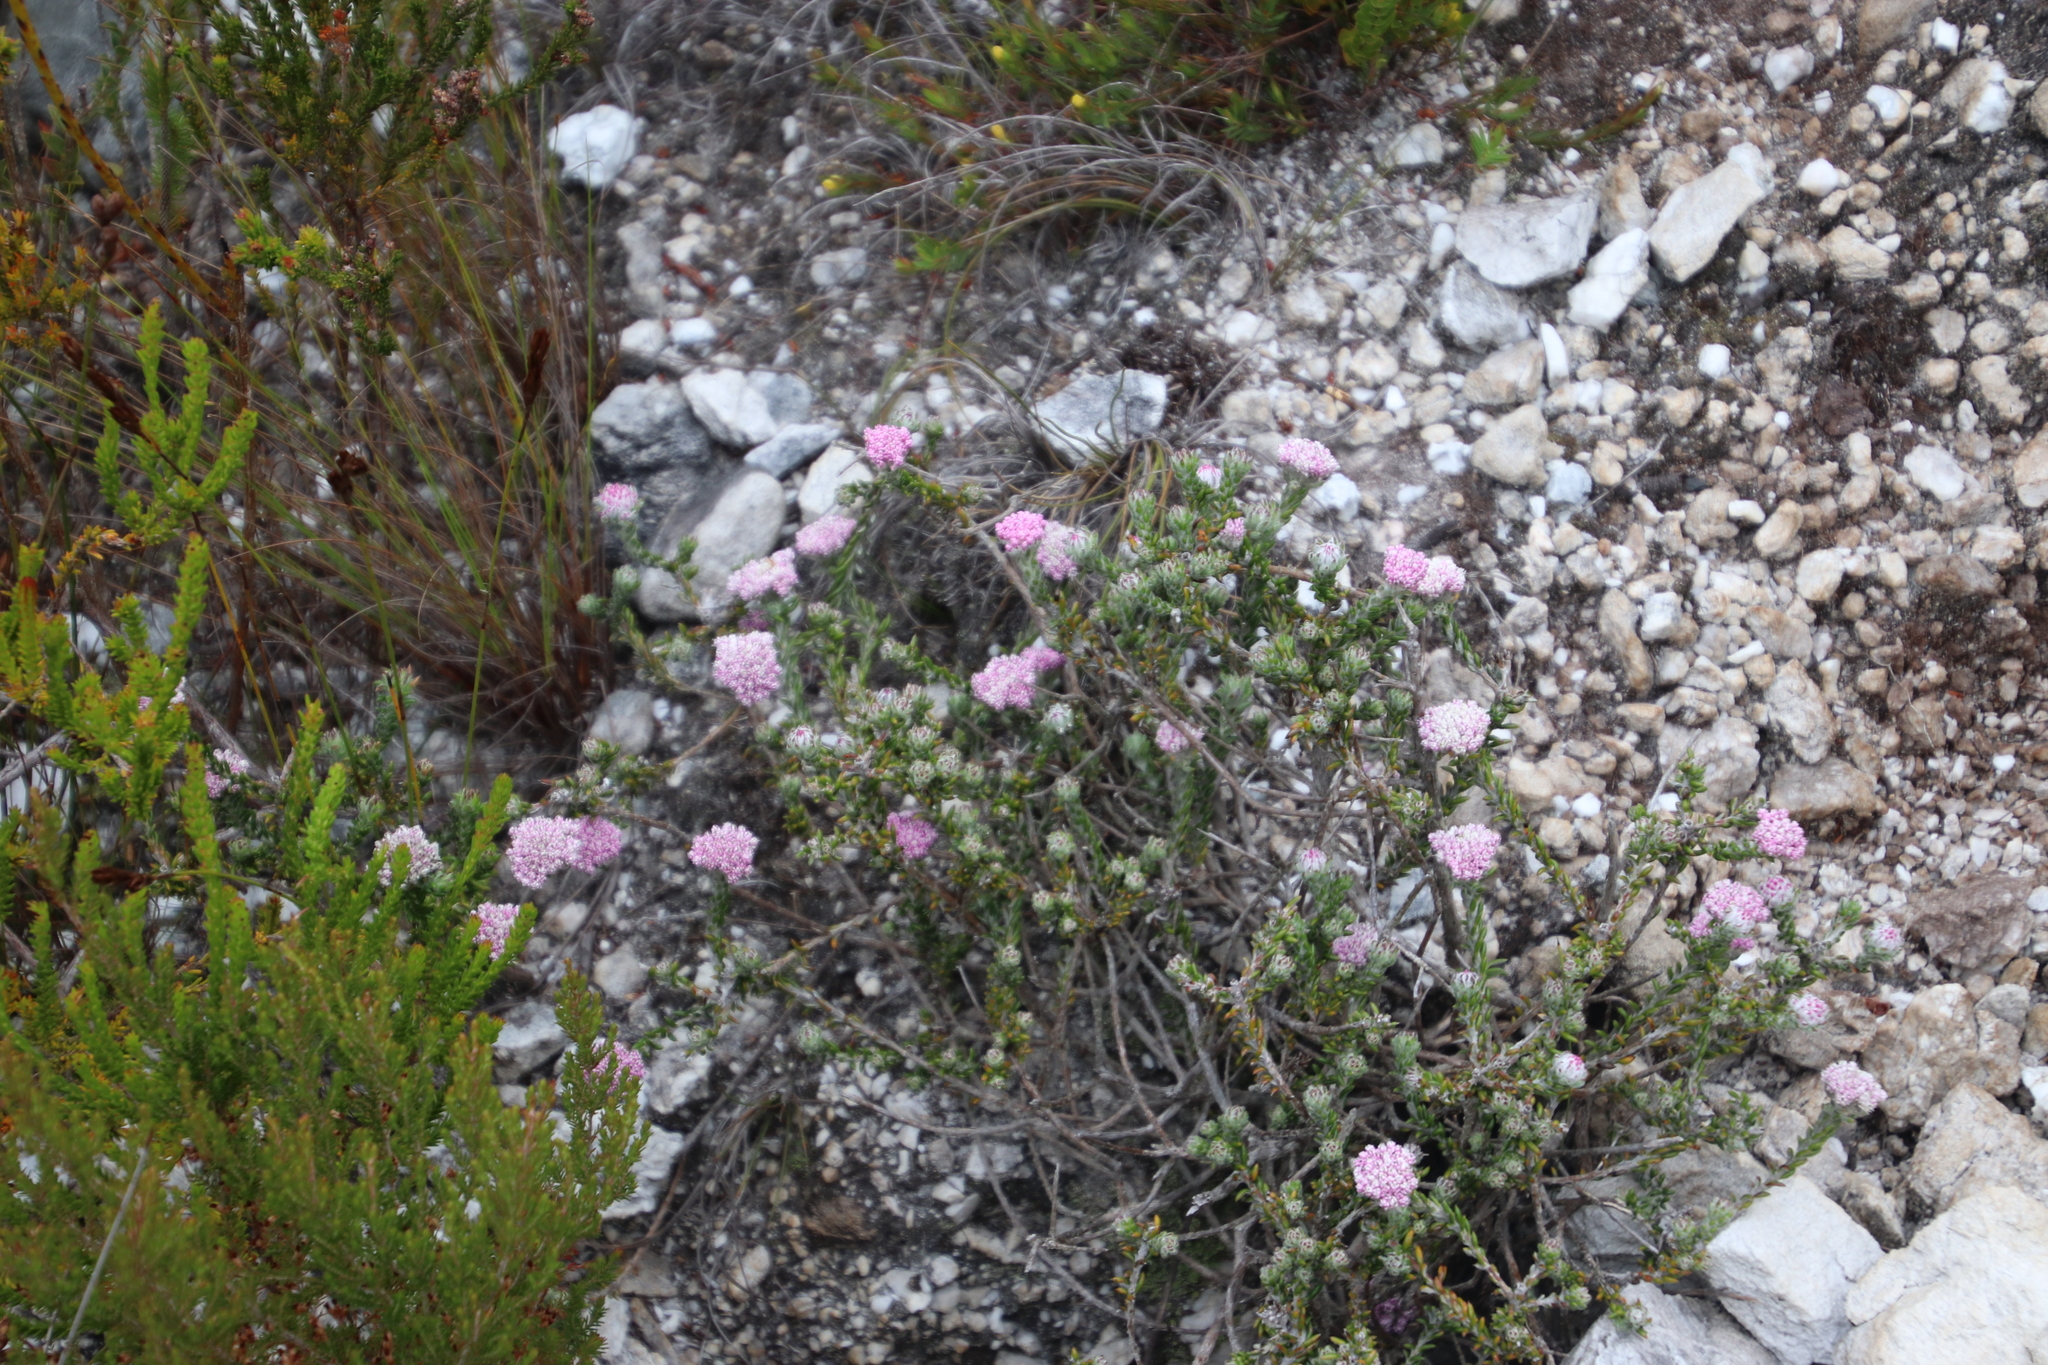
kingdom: Plantae
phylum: Tracheophyta
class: Magnoliopsida
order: Asterales
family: Asteraceae
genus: Metalasia
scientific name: Metalasia cymbifolia
